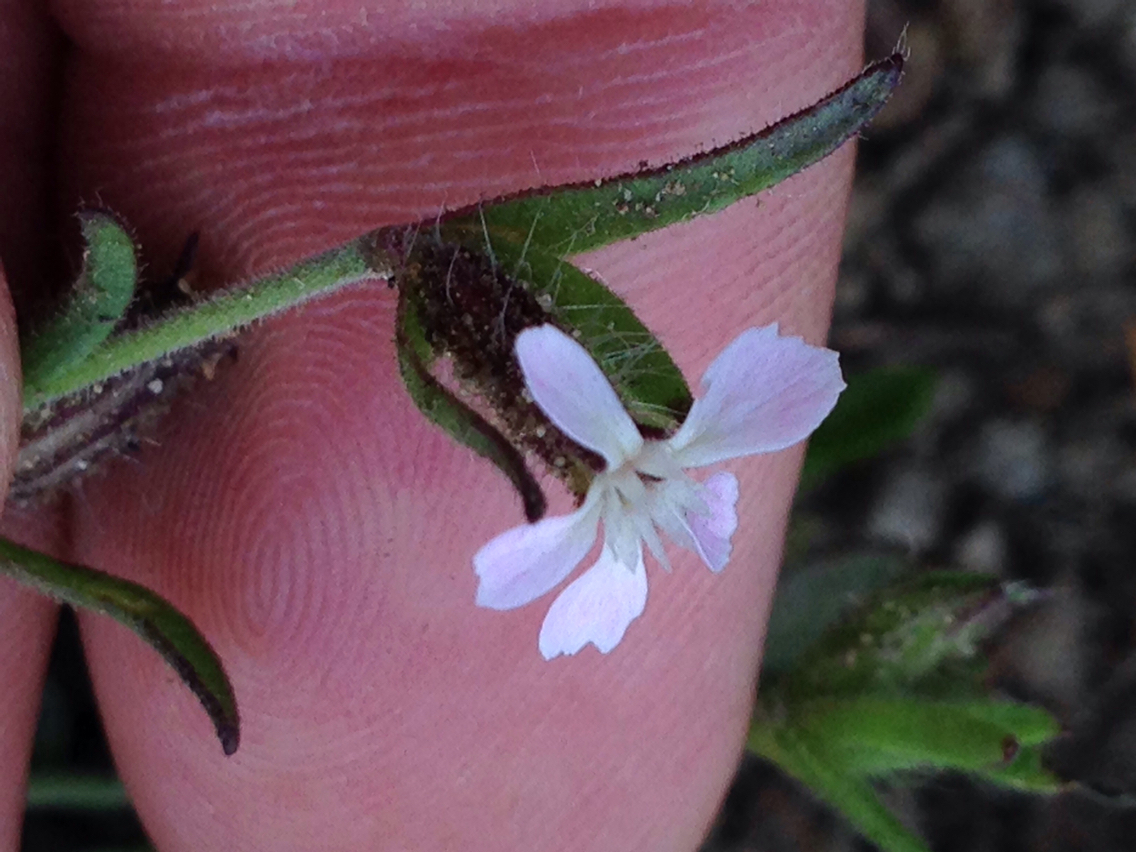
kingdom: Plantae
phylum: Tracheophyta
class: Magnoliopsida
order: Caryophyllales
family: Caryophyllaceae
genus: Silene
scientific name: Silene gallica
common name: Small-flowered catchfly
